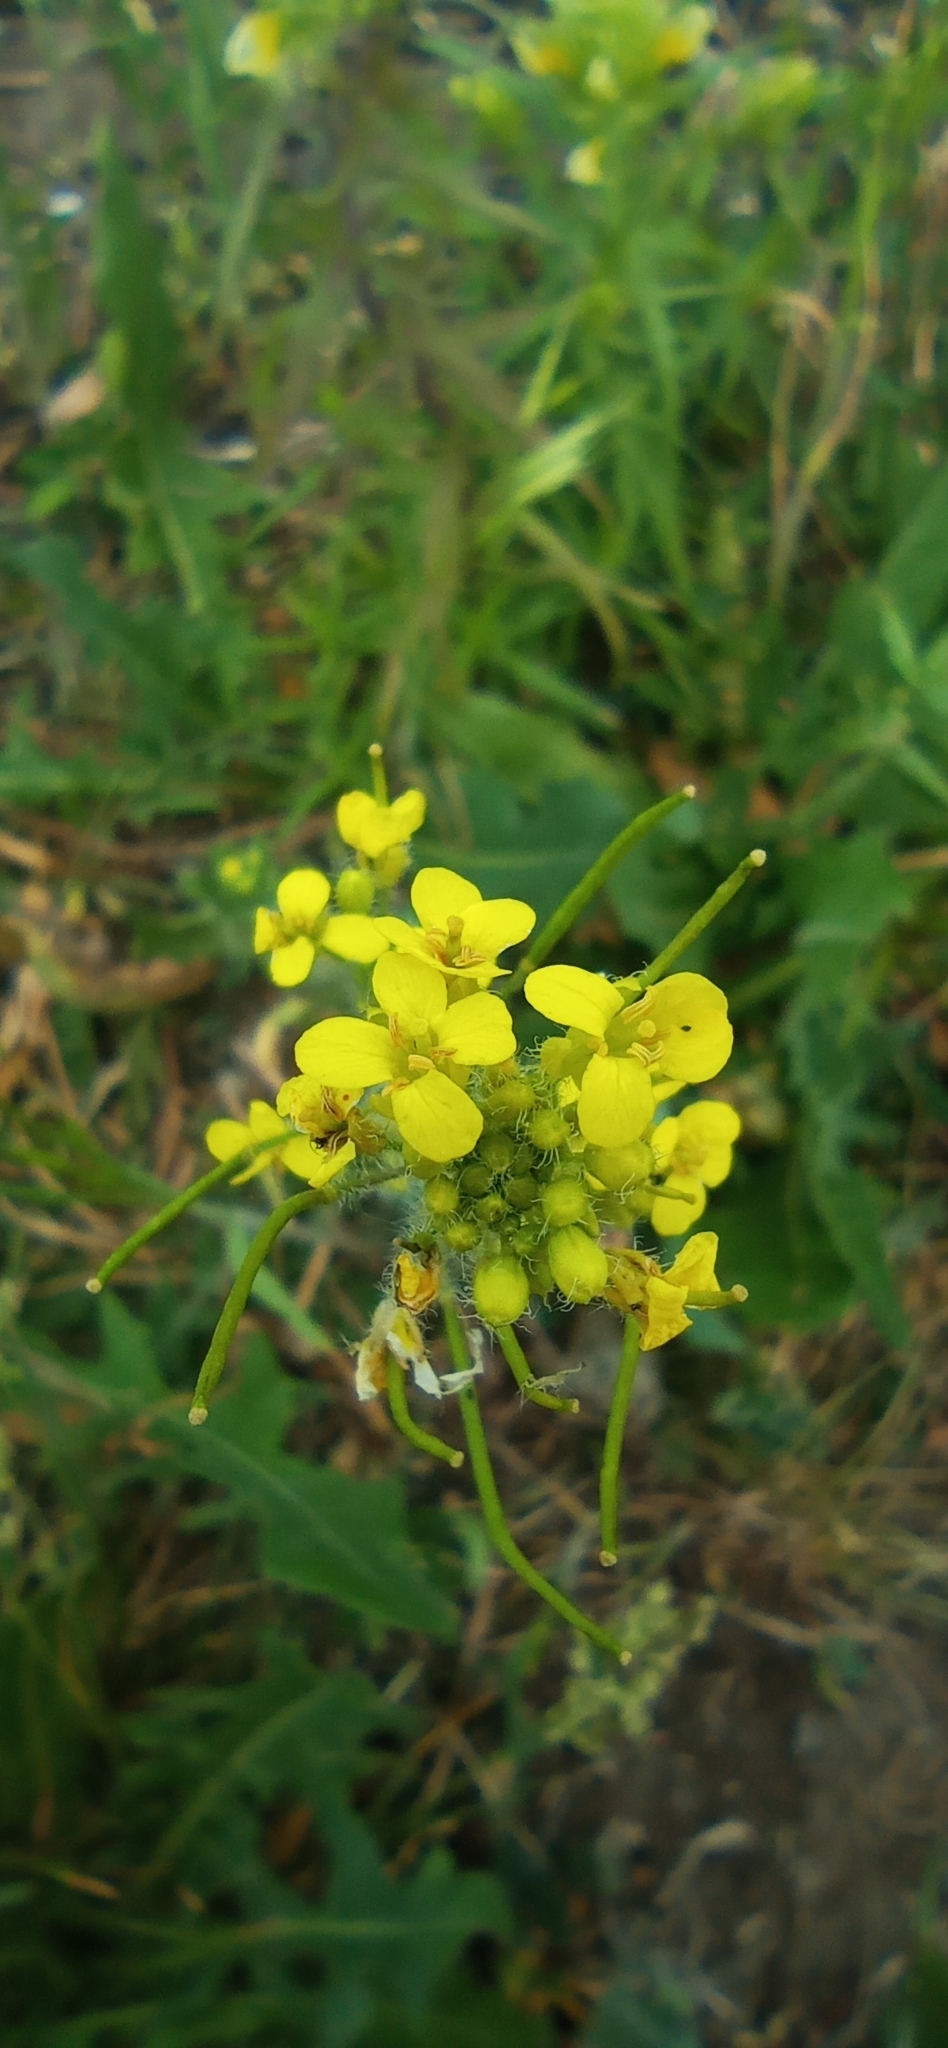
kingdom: Plantae
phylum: Tracheophyta
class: Magnoliopsida
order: Brassicales
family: Brassicaceae
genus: Sisymbrium
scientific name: Sisymbrium loeselii
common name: False london-rocket
